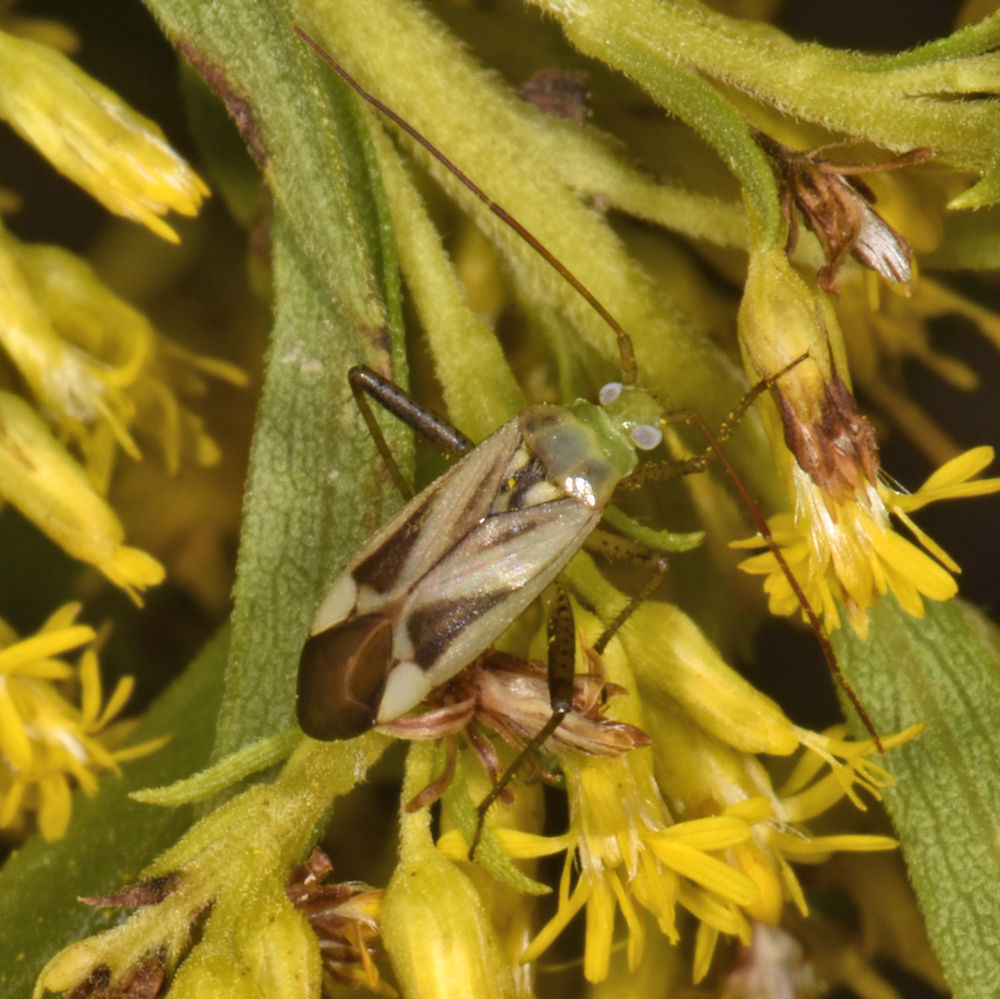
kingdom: Animalia
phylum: Arthropoda
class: Insecta
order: Hemiptera
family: Miridae
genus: Adelphocoris
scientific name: Adelphocoris lineolatus
